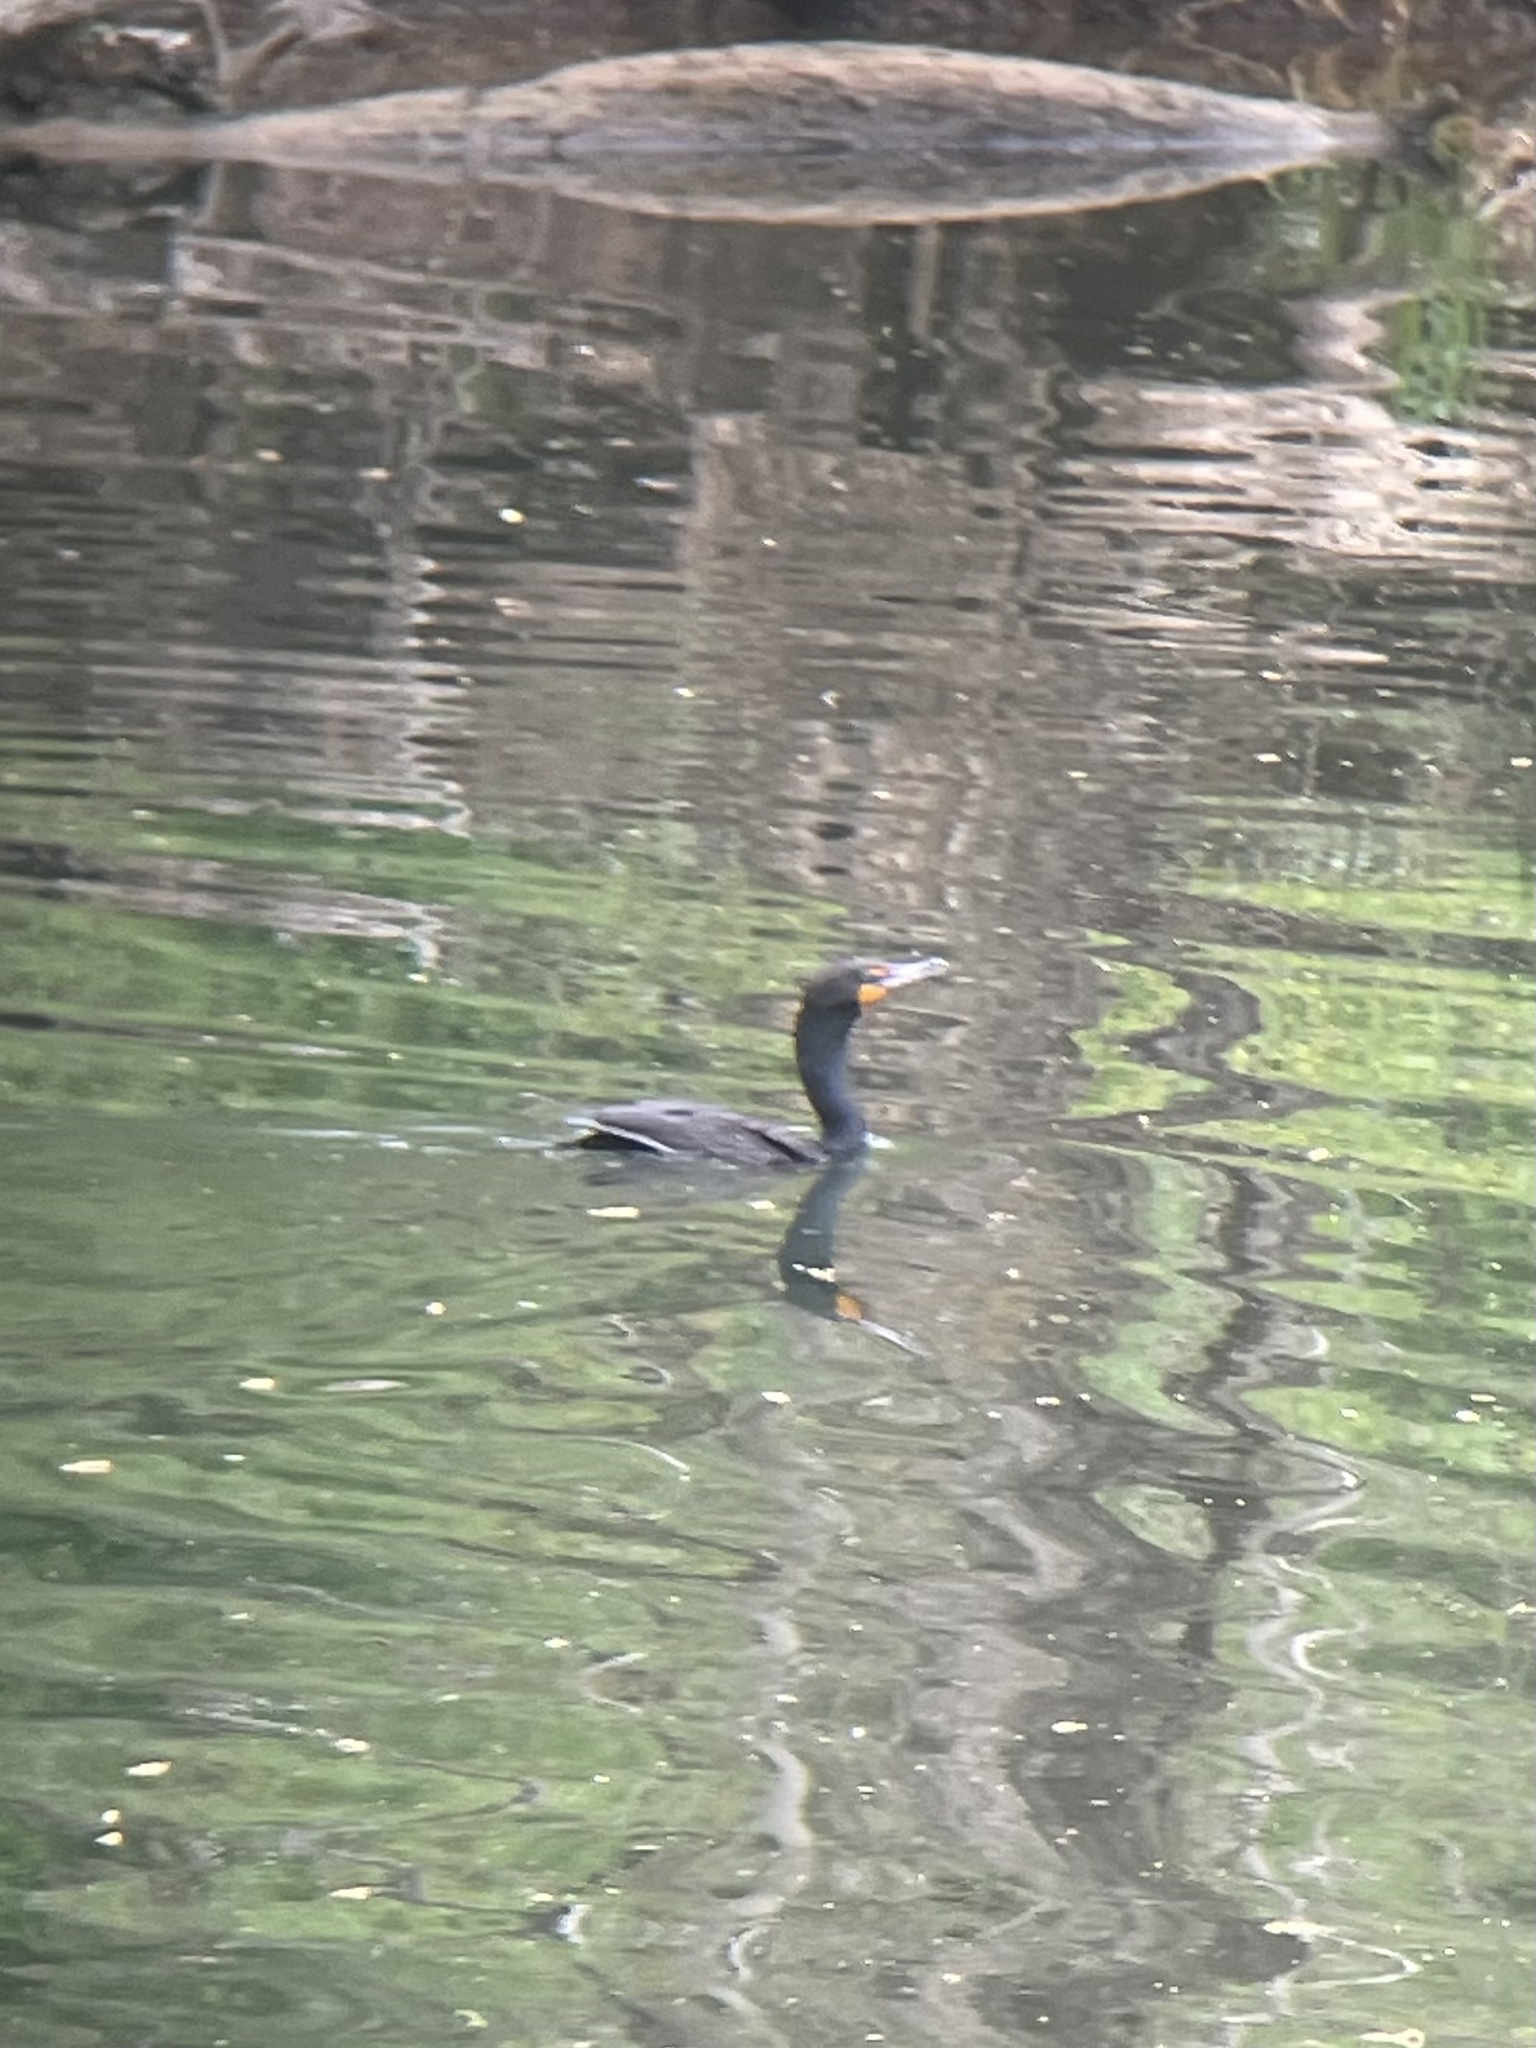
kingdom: Animalia
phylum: Chordata
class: Aves
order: Suliformes
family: Phalacrocoracidae
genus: Phalacrocorax
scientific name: Phalacrocorax auritus
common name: Double-crested cormorant
